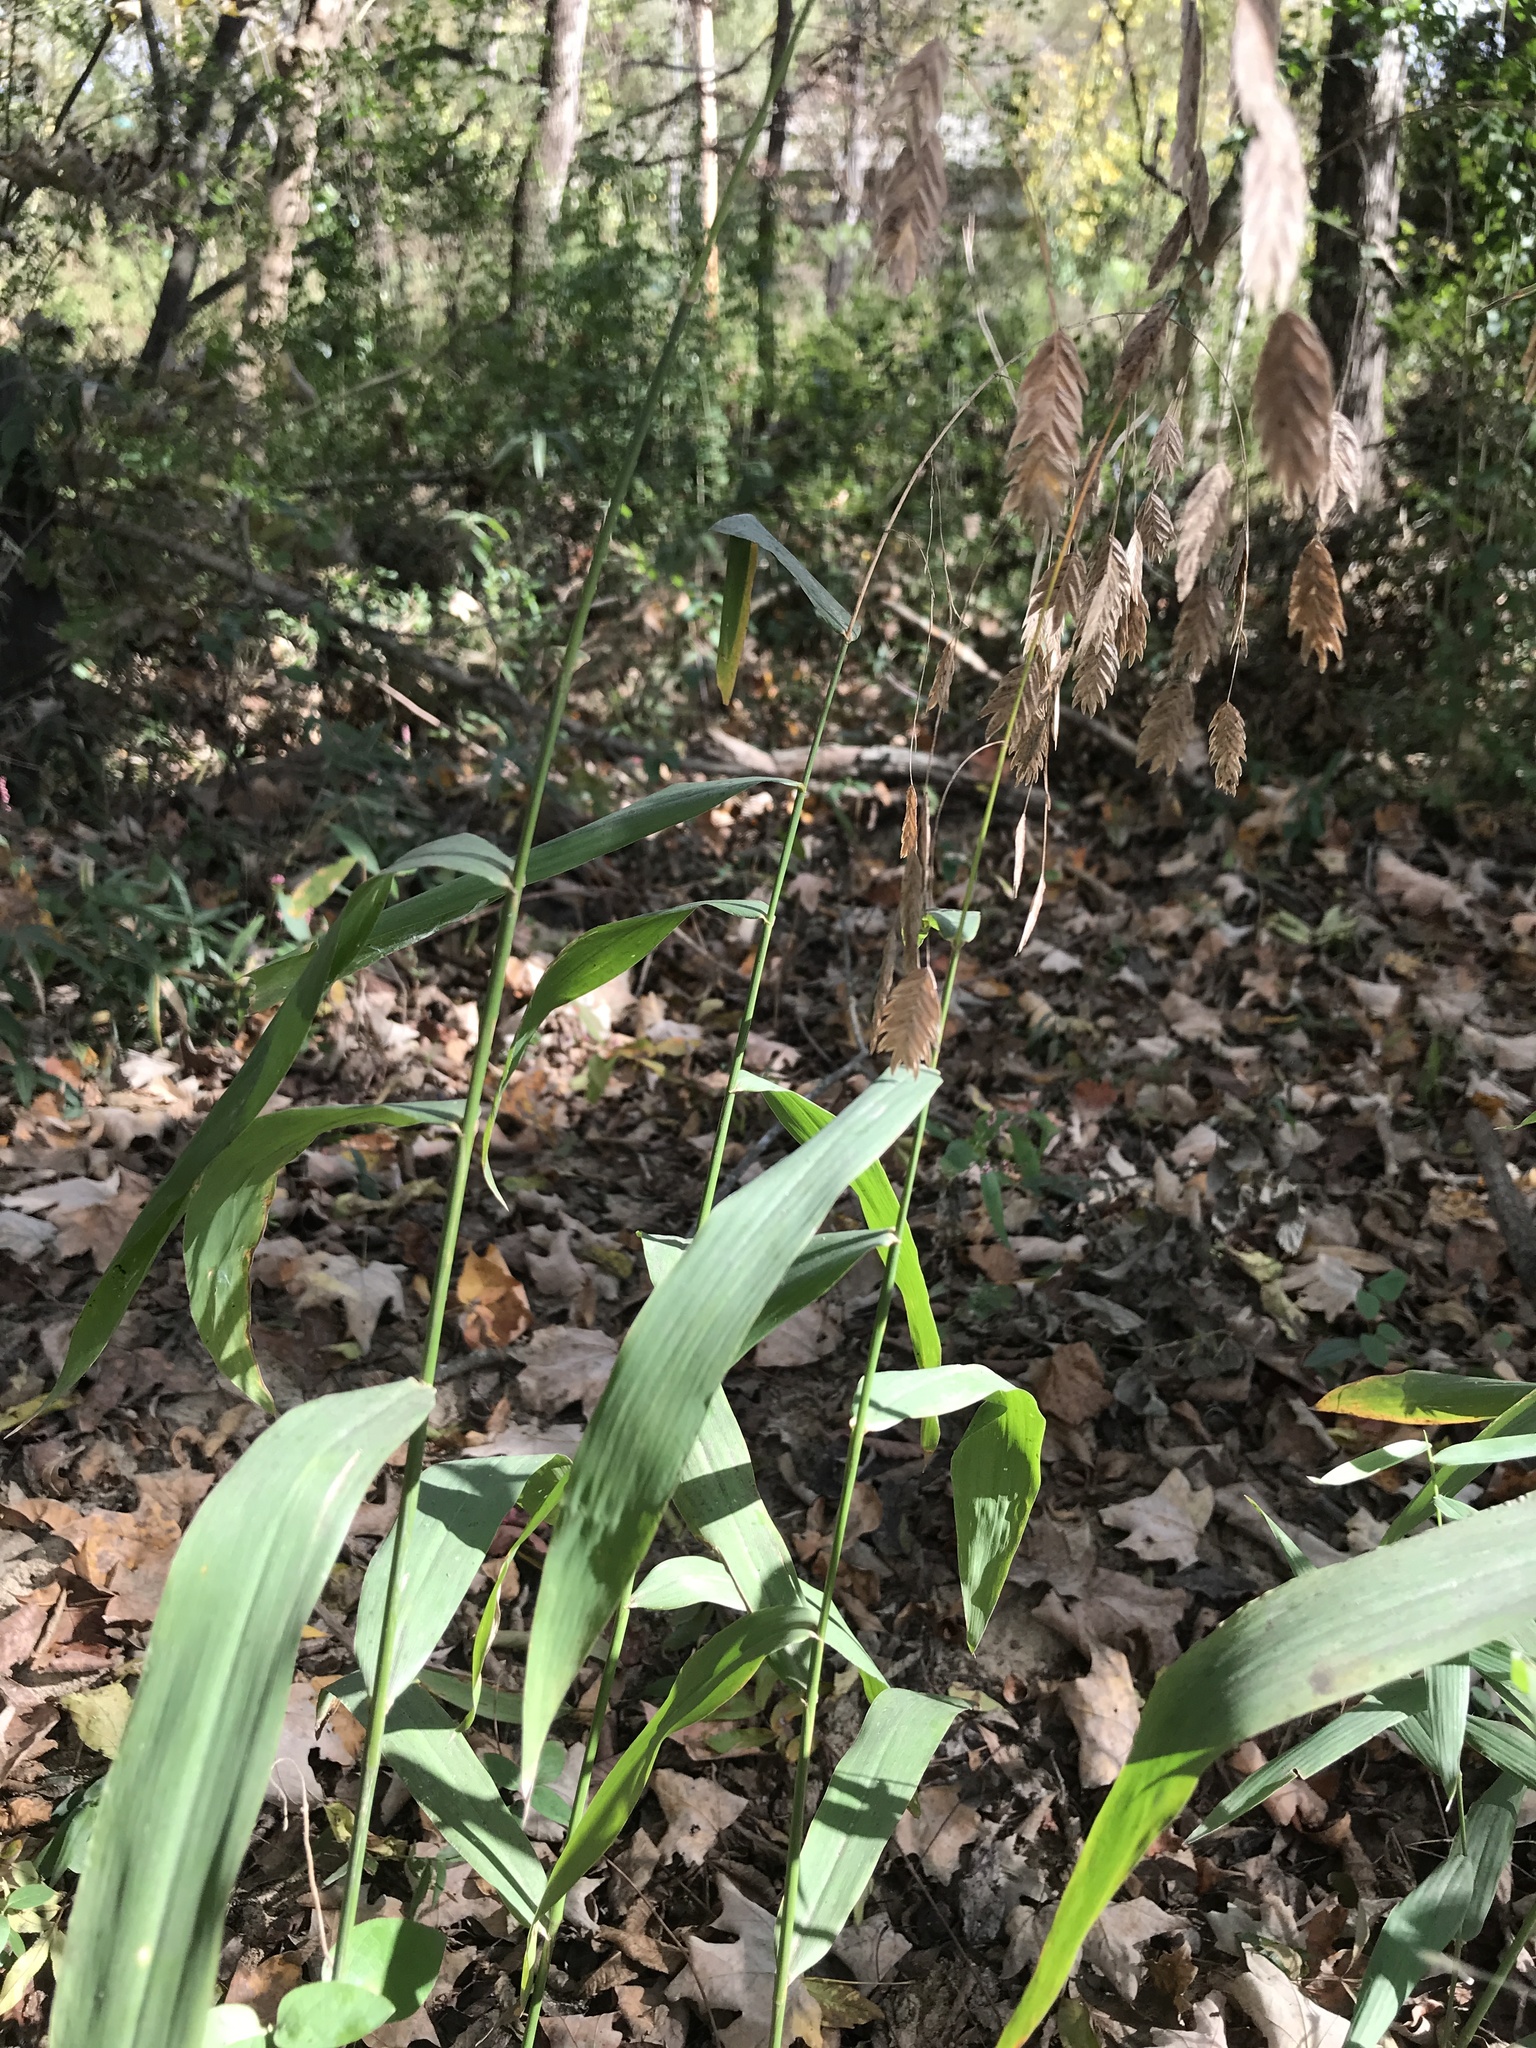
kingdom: Plantae
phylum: Tracheophyta
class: Liliopsida
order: Poales
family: Poaceae
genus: Chasmanthium
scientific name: Chasmanthium latifolium
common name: Broad-leaved chasmanthium
